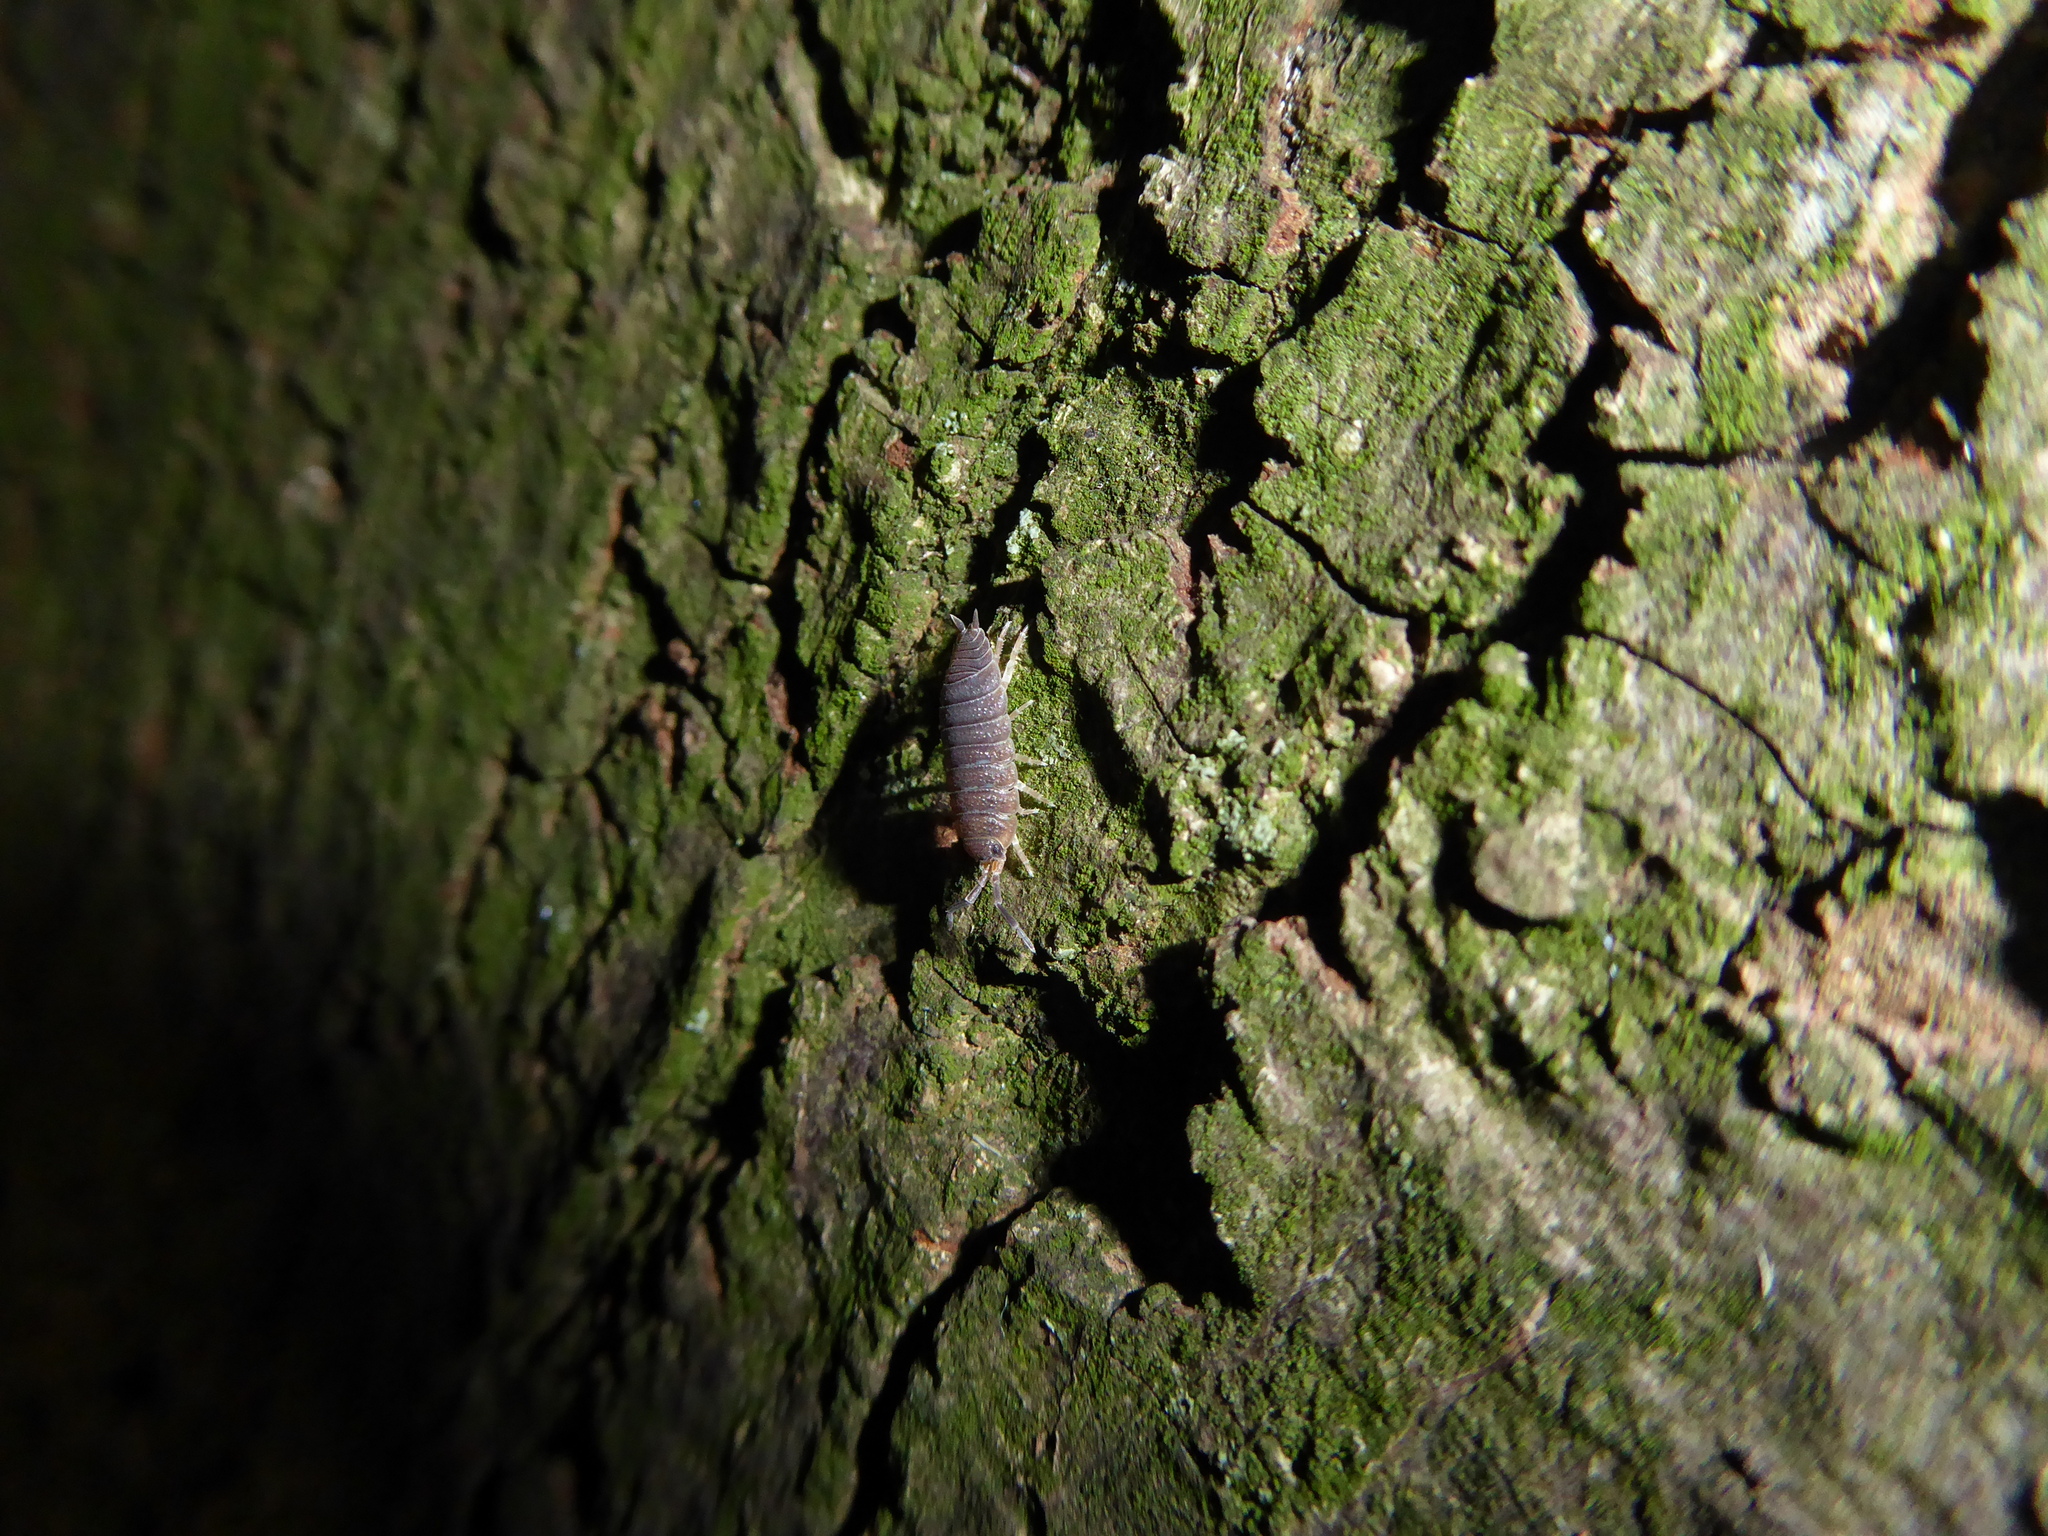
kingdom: Animalia
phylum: Arthropoda
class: Malacostraca
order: Isopoda
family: Porcellionidae
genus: Porcellio
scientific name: Porcellio scaber
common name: Common rough woodlouse
